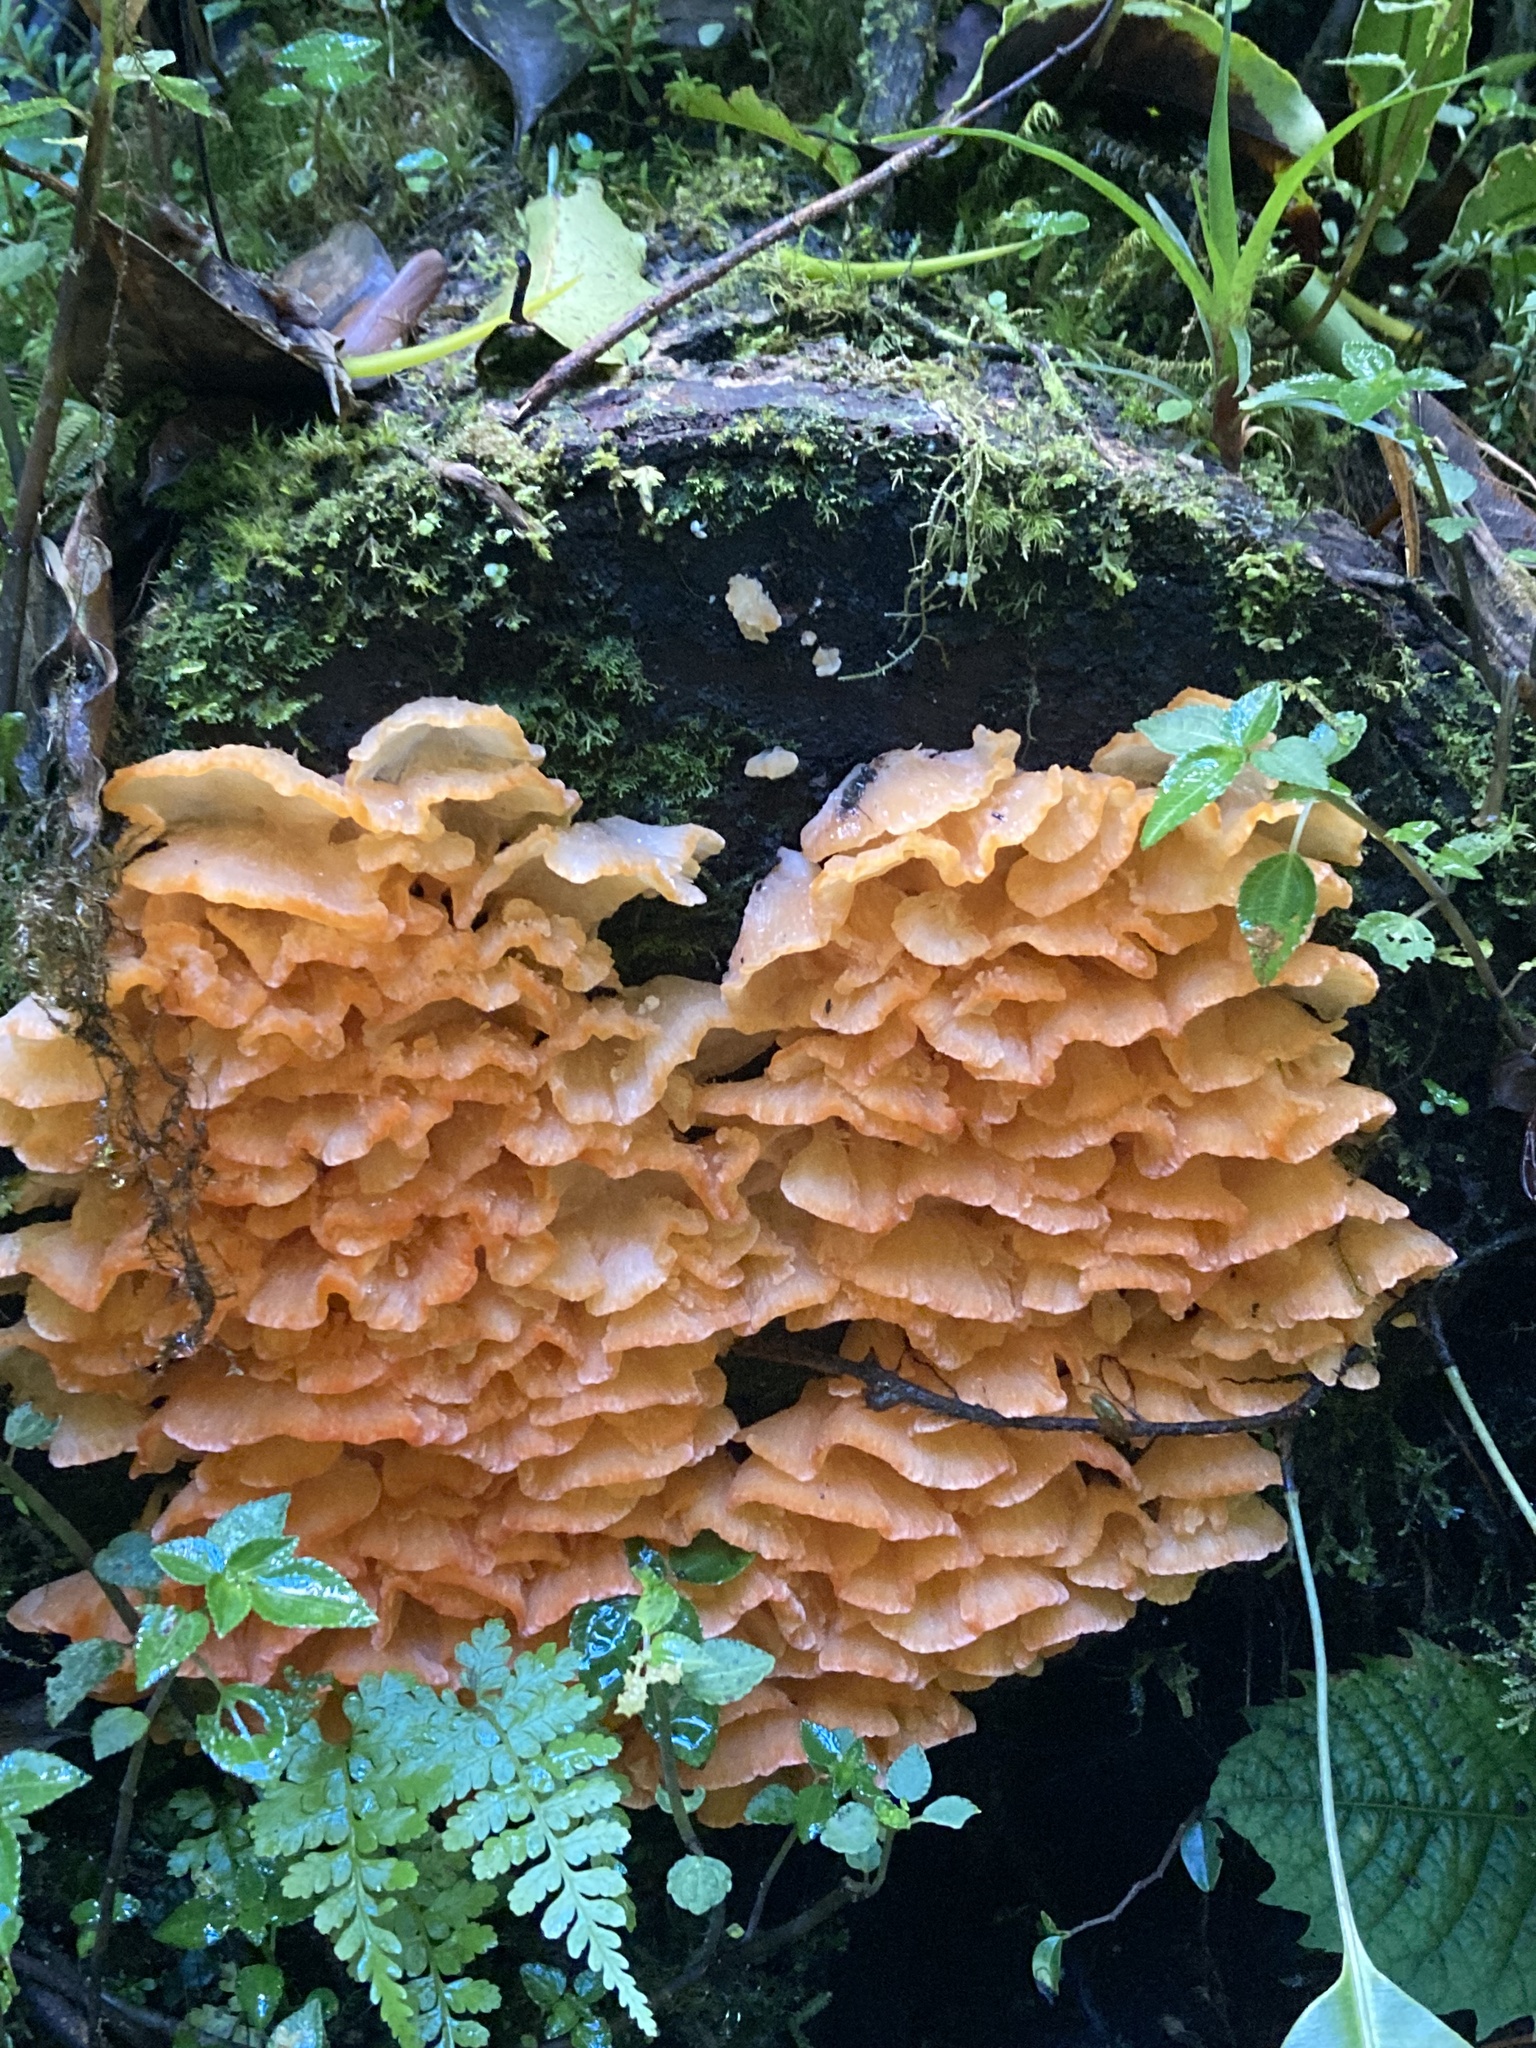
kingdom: Fungi
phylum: Basidiomycota
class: Agaricomycetes
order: Polyporales
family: Meruliaceae
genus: Aurantiopileus
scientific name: Aurantiopileus mayaensis
